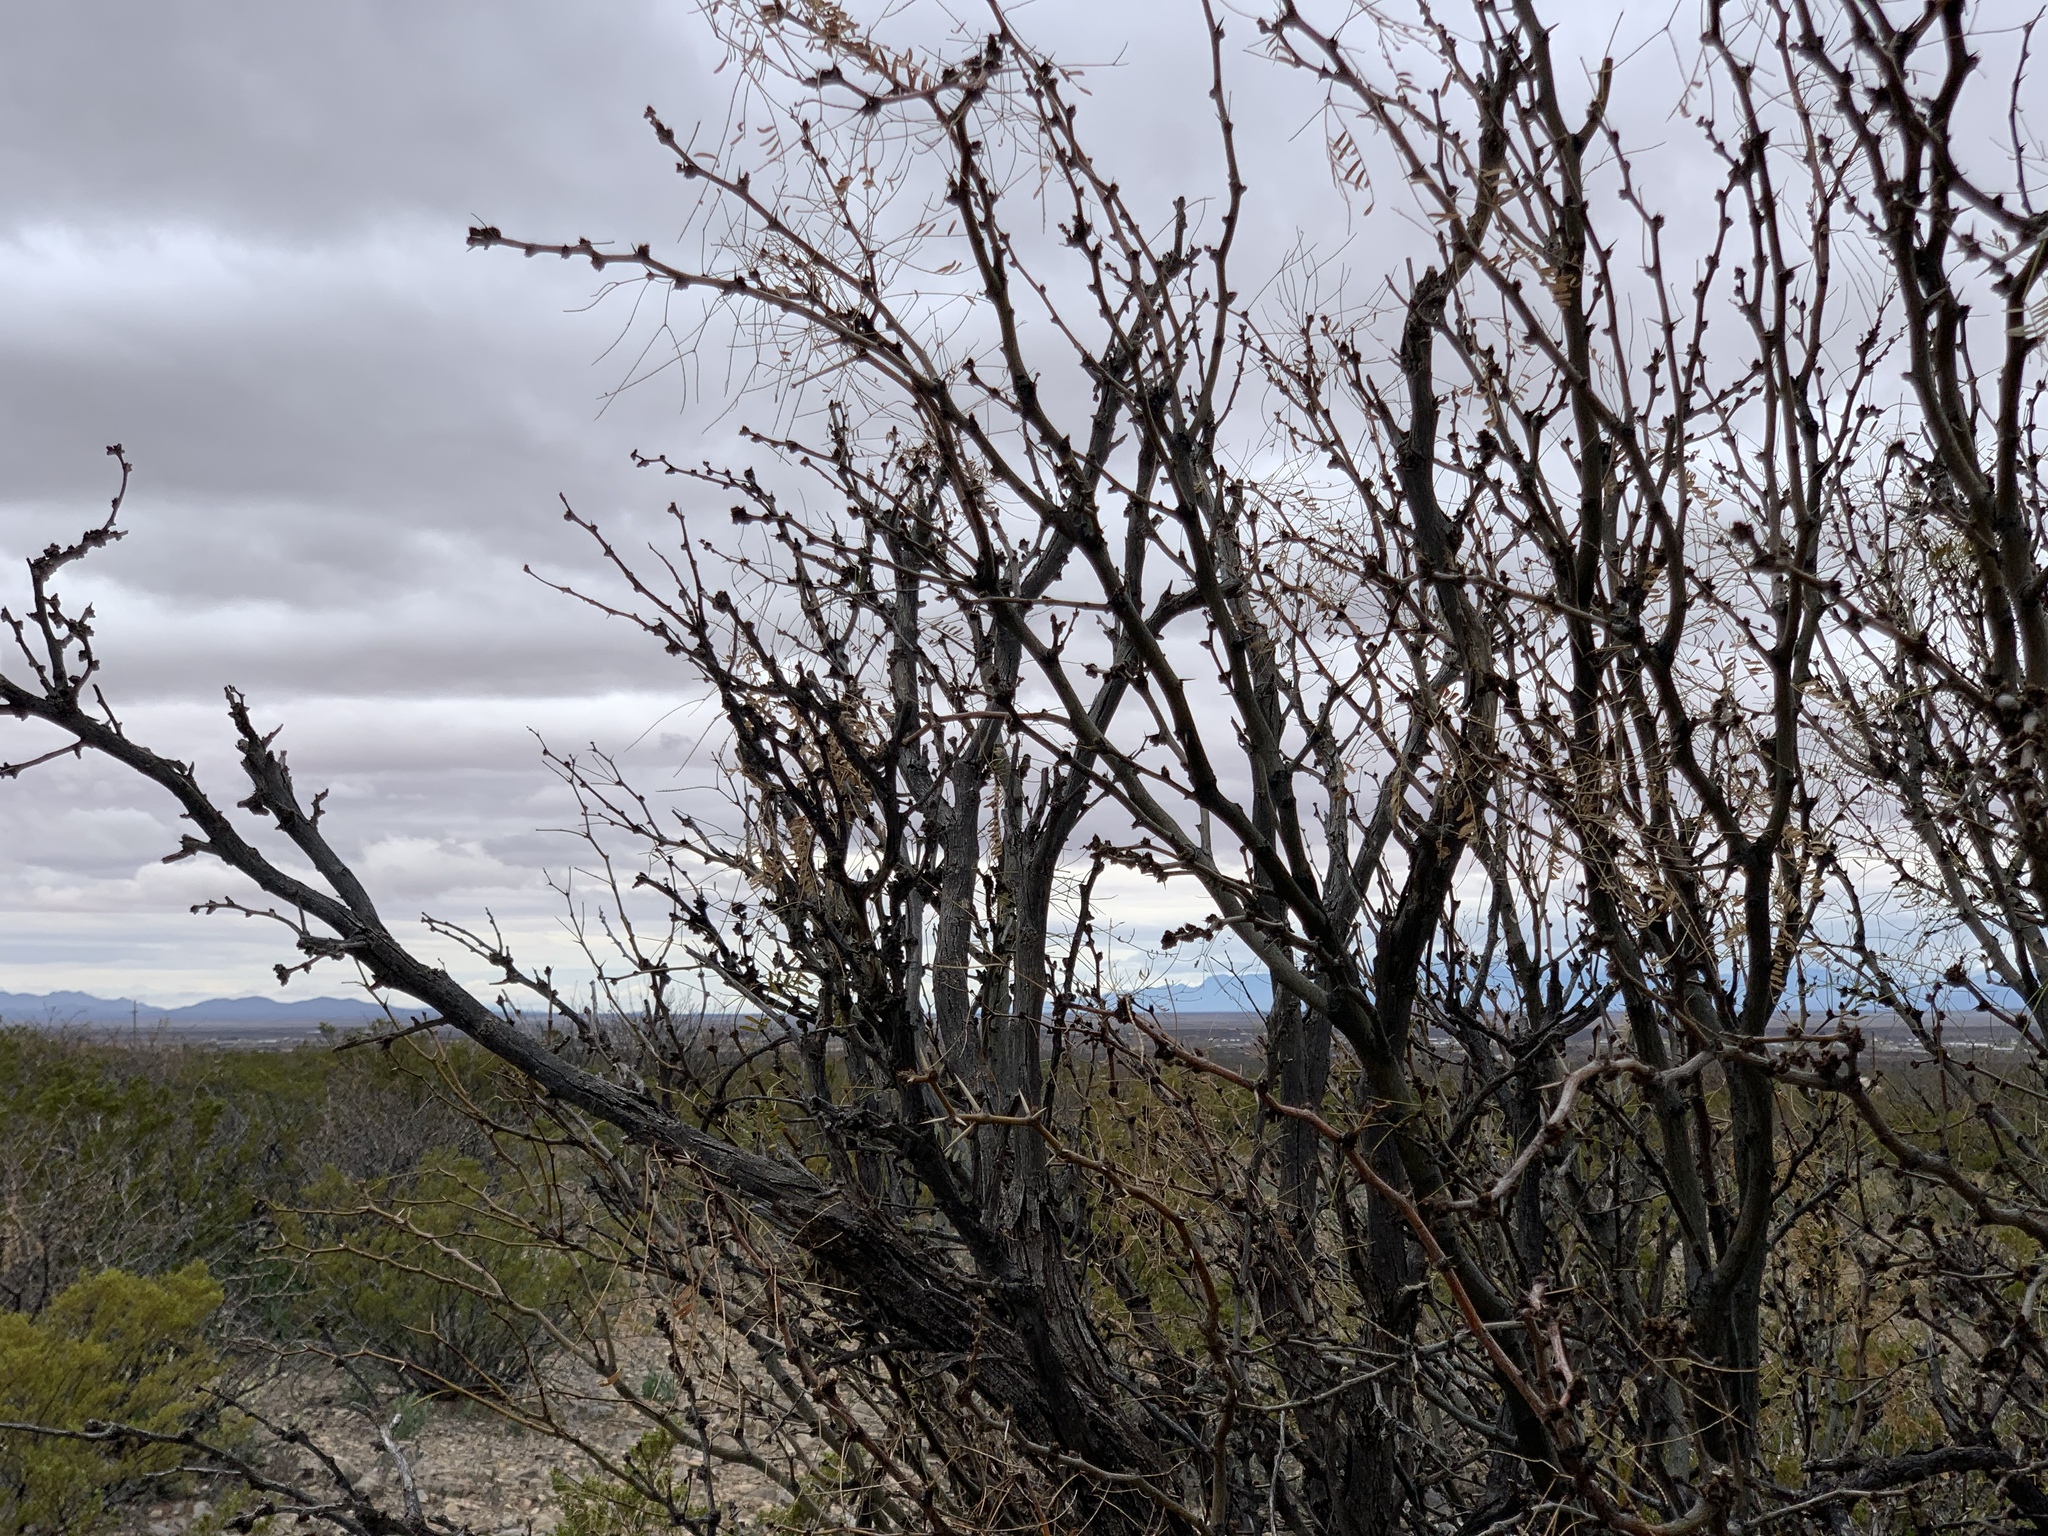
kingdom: Plantae
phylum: Tracheophyta
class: Magnoliopsida
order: Fabales
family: Fabaceae
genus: Prosopis
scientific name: Prosopis glandulosa
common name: Honey mesquite
